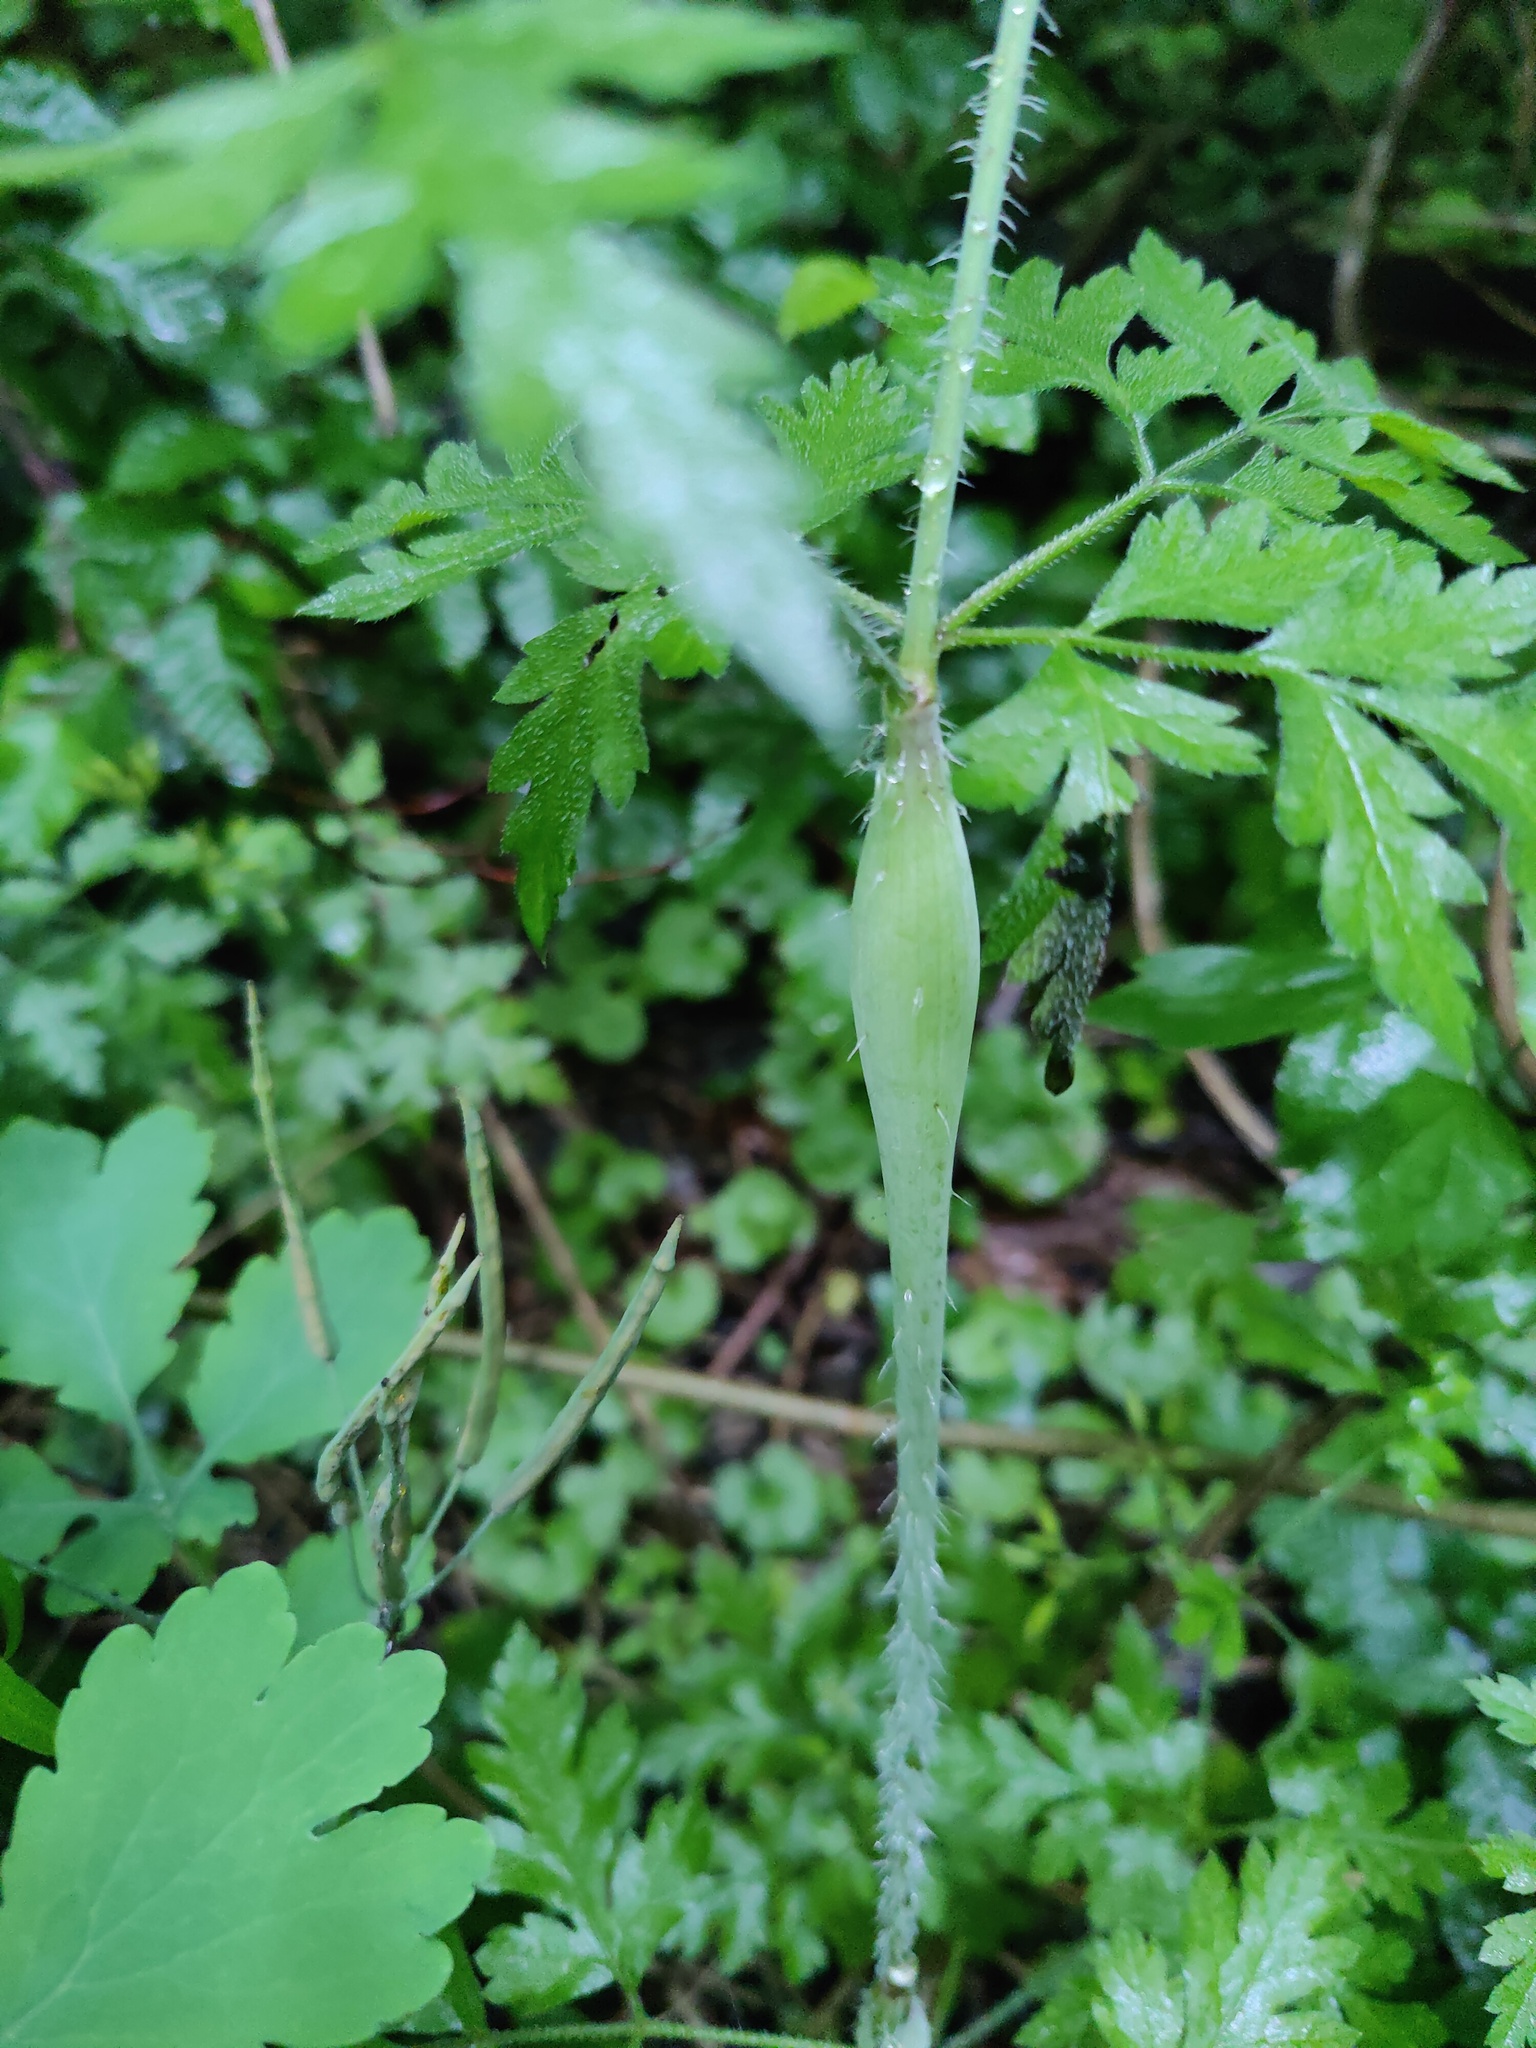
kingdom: Plantae
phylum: Tracheophyta
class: Magnoliopsida
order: Apiales
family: Apiaceae
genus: Chaerophyllum
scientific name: Chaerophyllum nodosum
